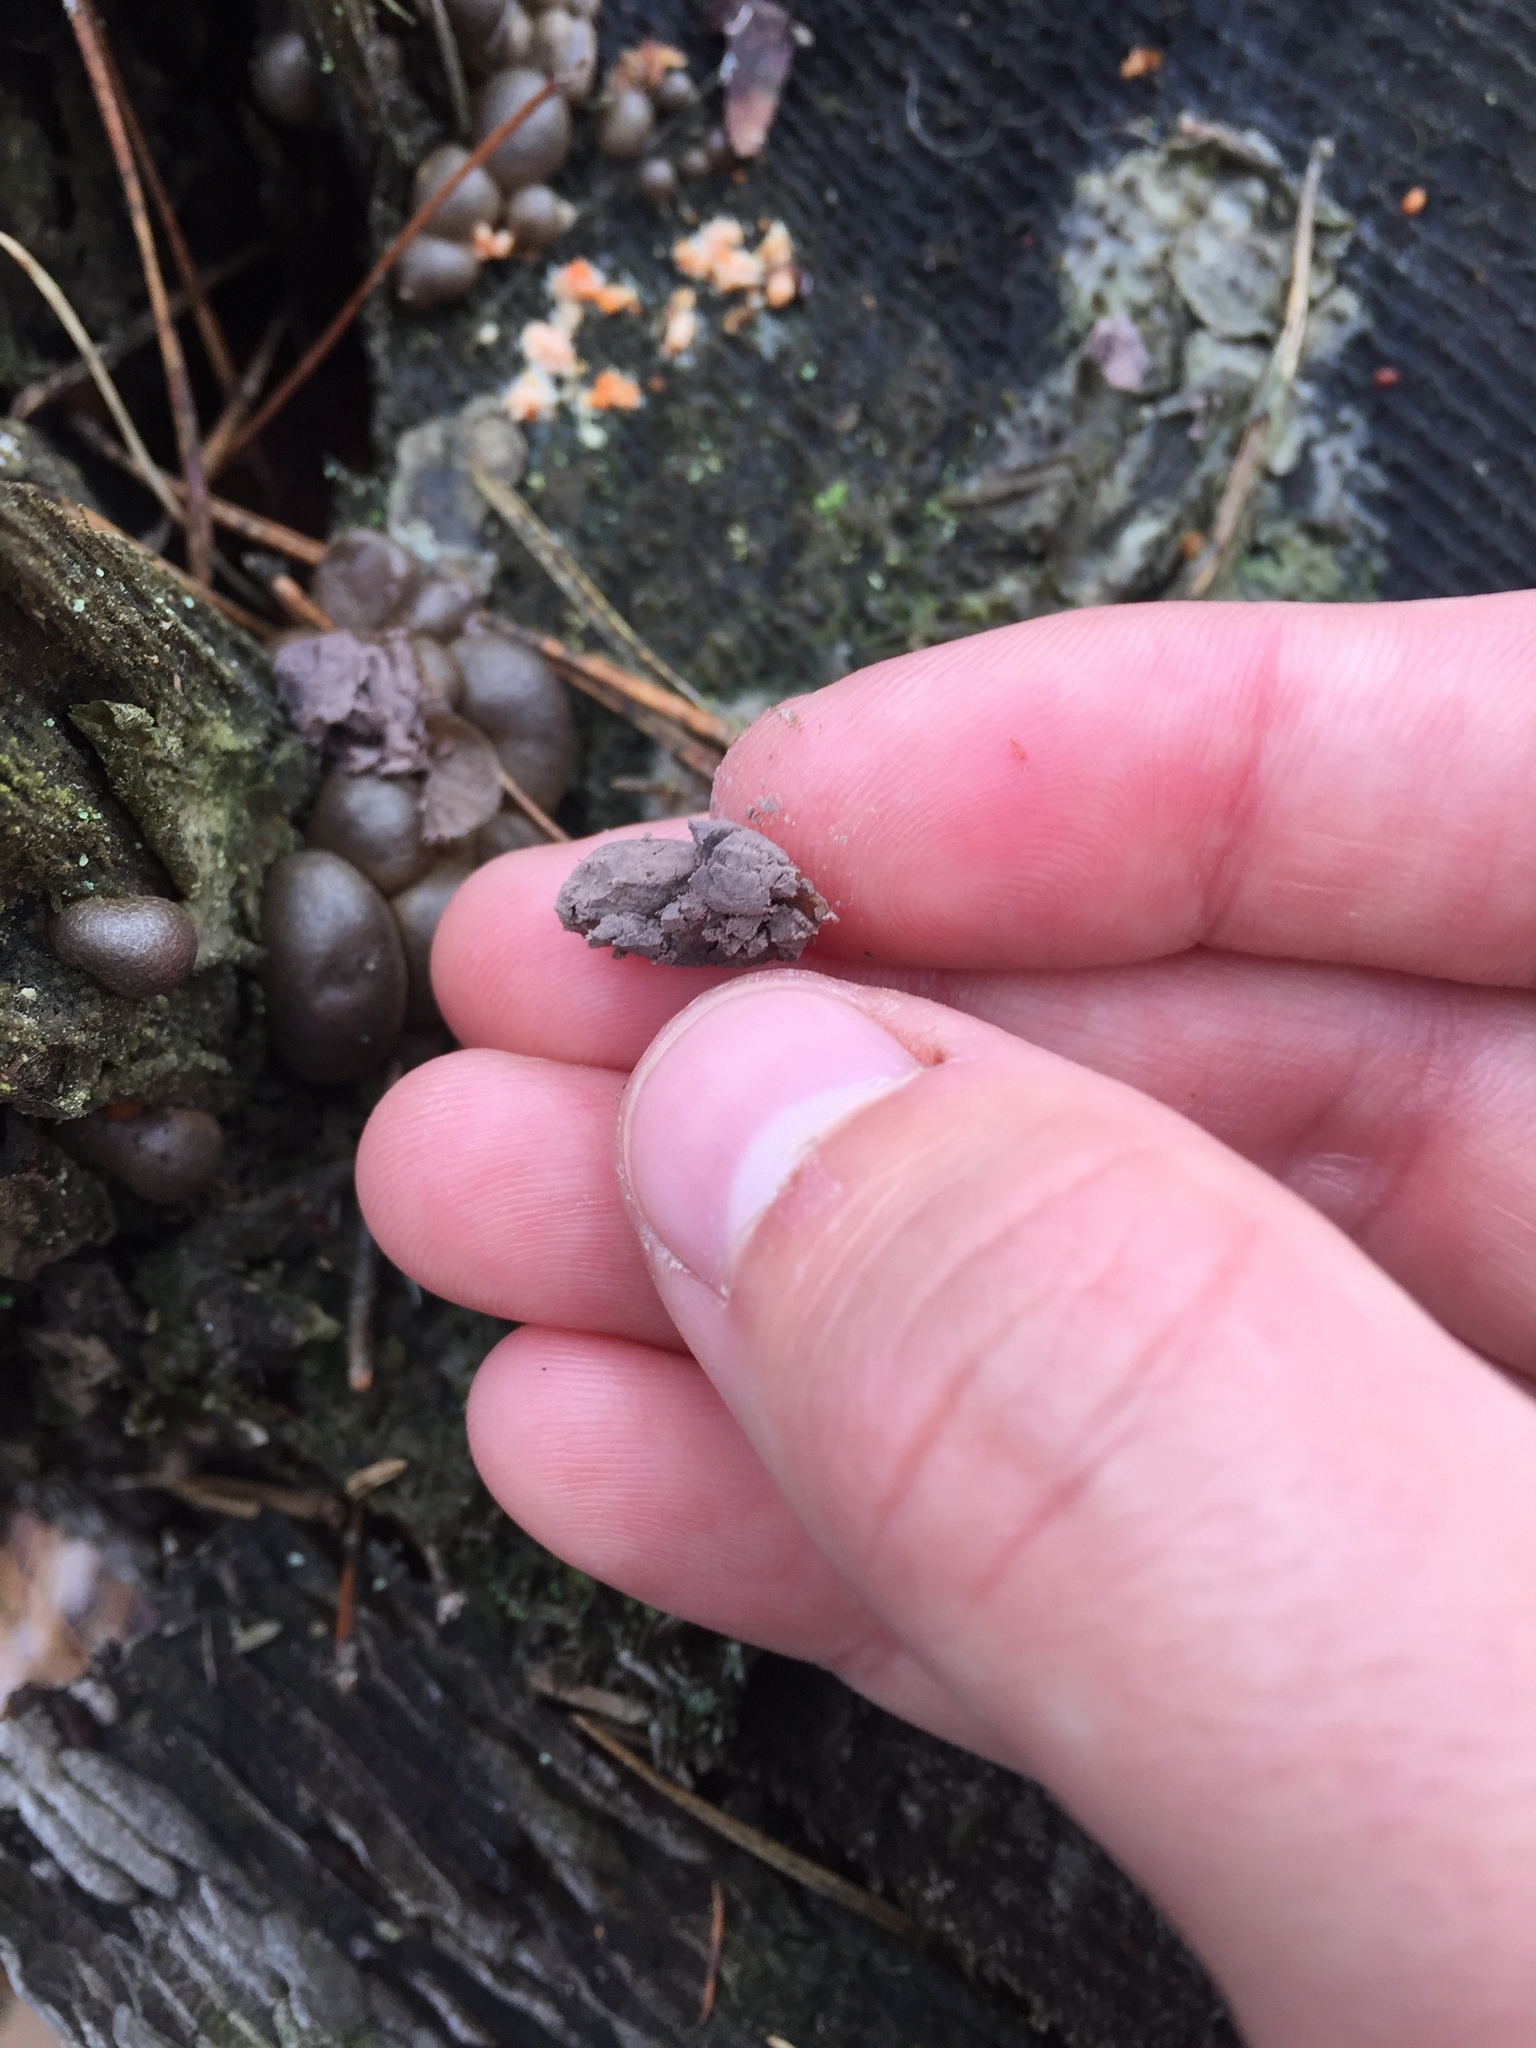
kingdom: Protozoa
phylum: Mycetozoa
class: Myxomycetes
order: Cribrariales
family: Tubiferaceae
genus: Lycogala
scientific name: Lycogala epidendrum
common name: Wolf's milk
